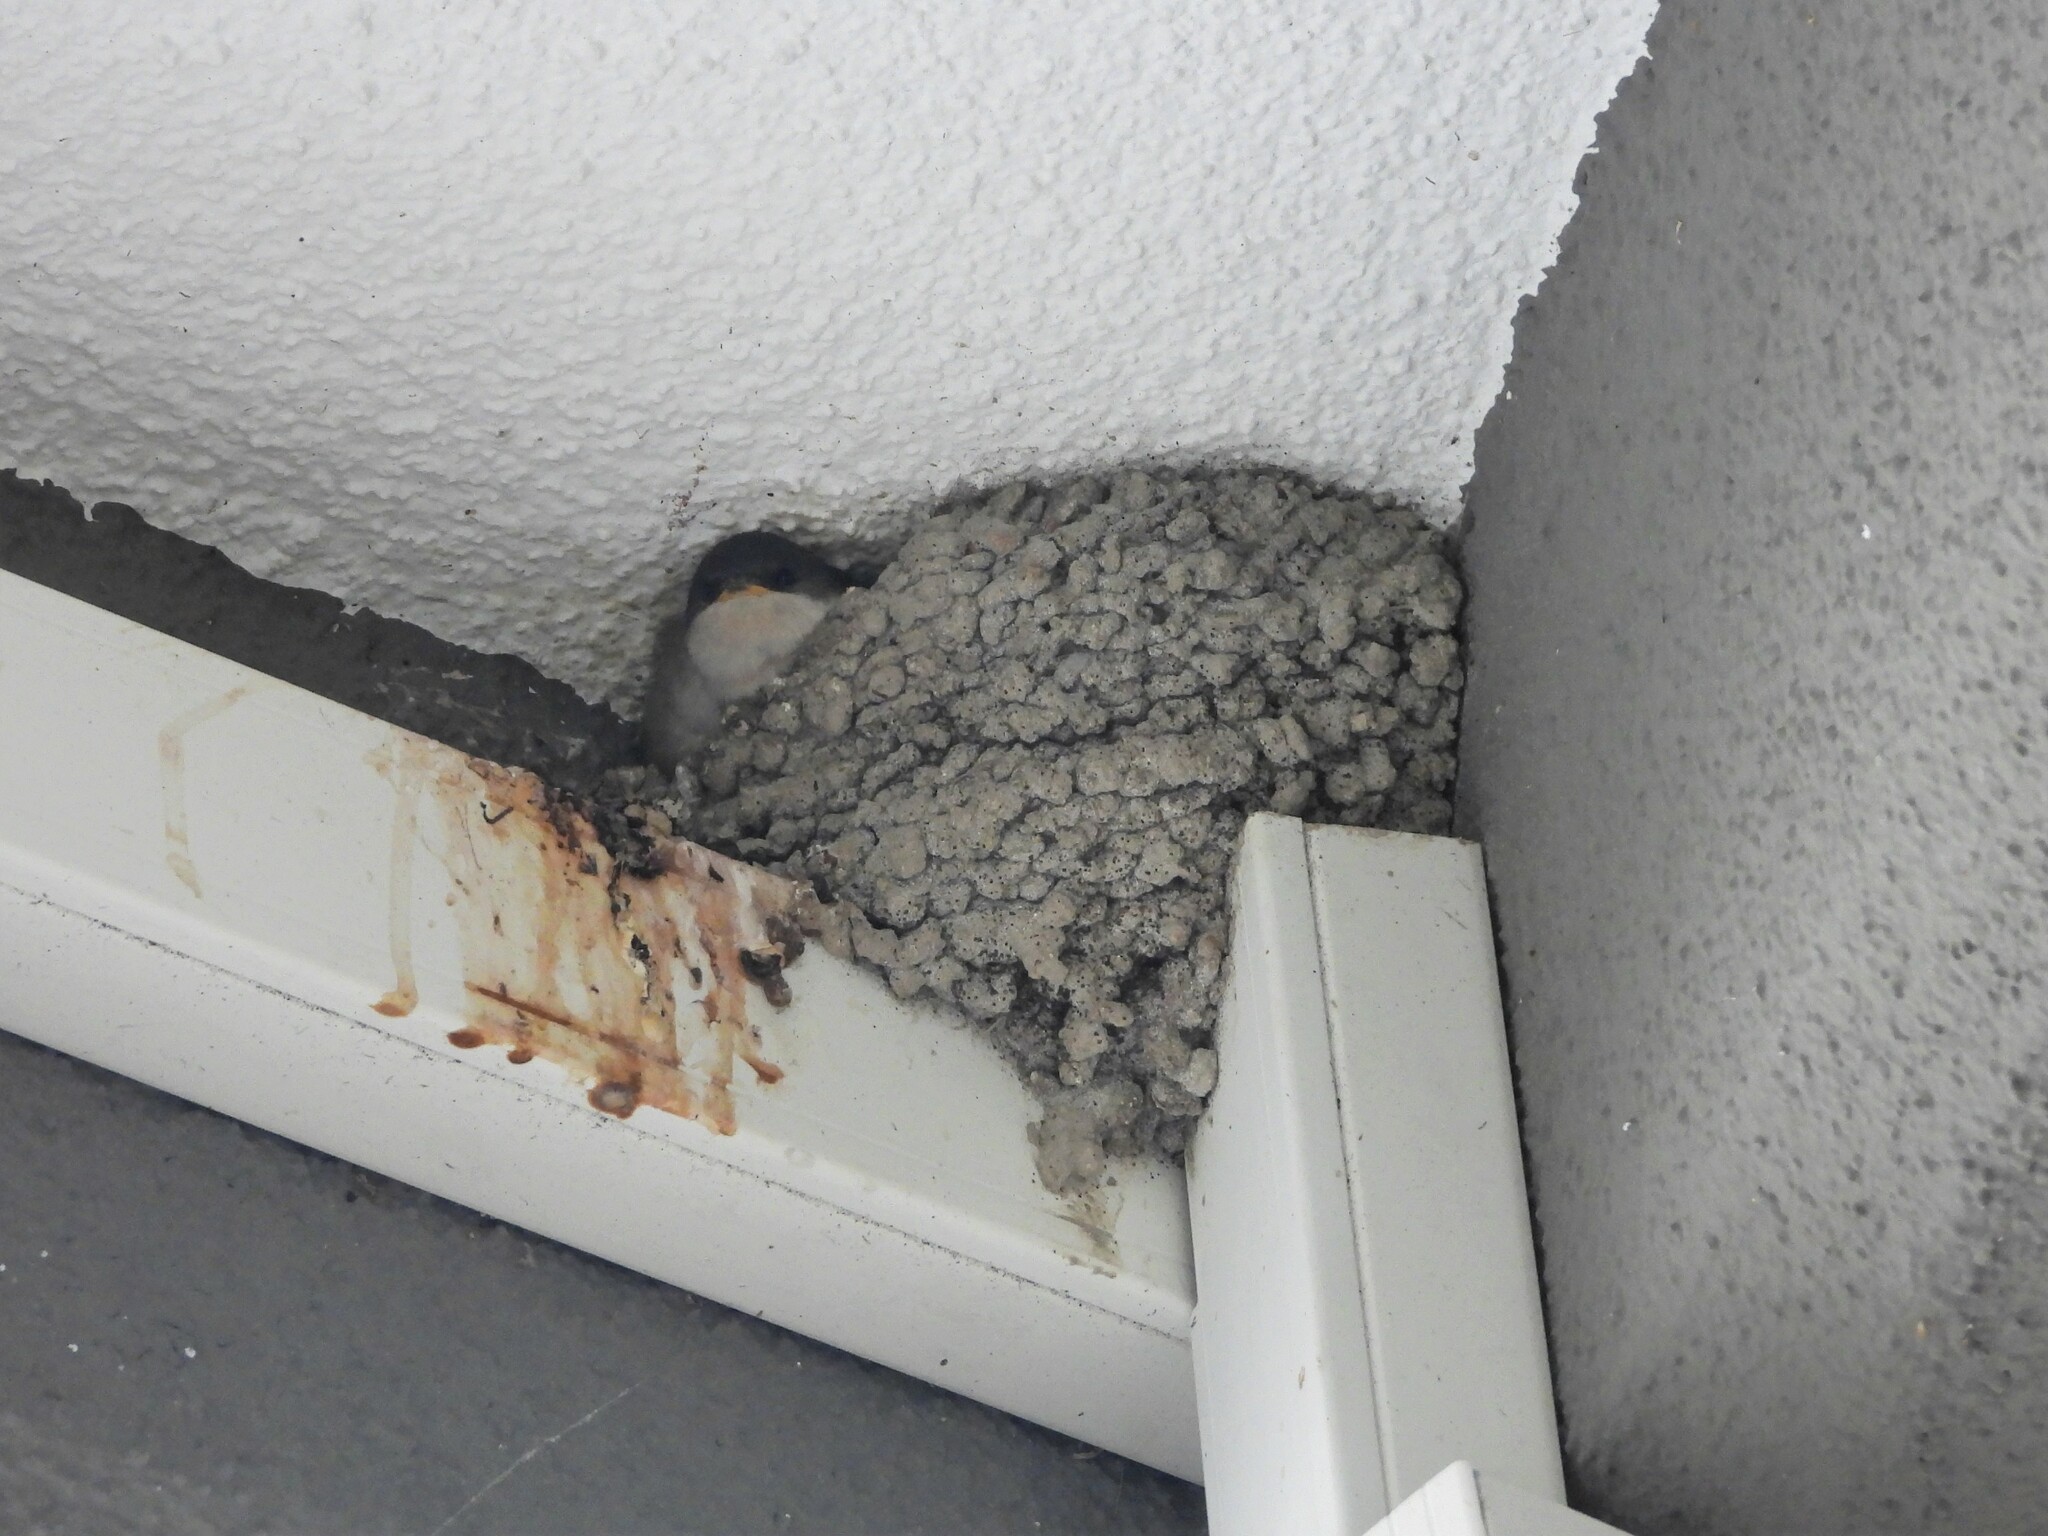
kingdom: Animalia
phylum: Chordata
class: Aves
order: Passeriformes
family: Hirundinidae
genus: Delichon
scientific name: Delichon urbicum
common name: Common house martin
